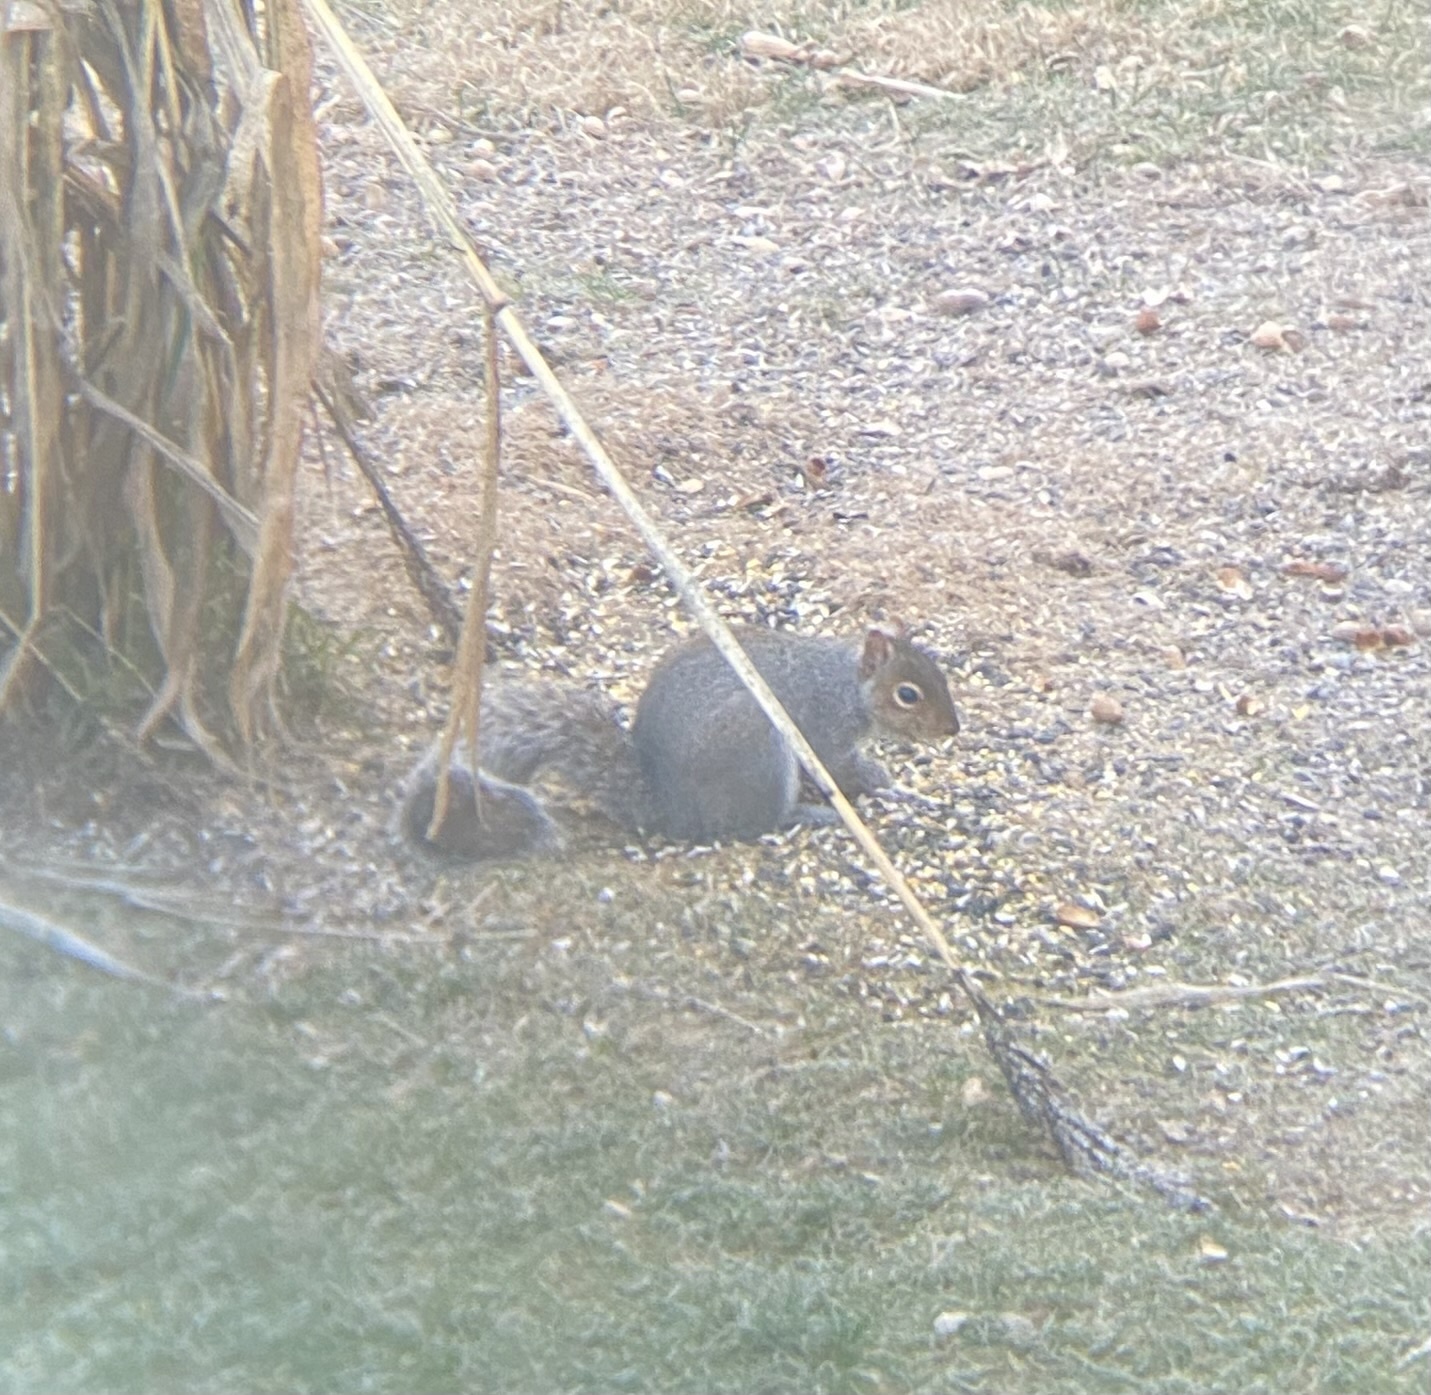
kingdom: Animalia
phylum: Chordata
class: Mammalia
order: Rodentia
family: Sciuridae
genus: Sciurus
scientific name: Sciurus carolinensis
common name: Eastern gray squirrel
